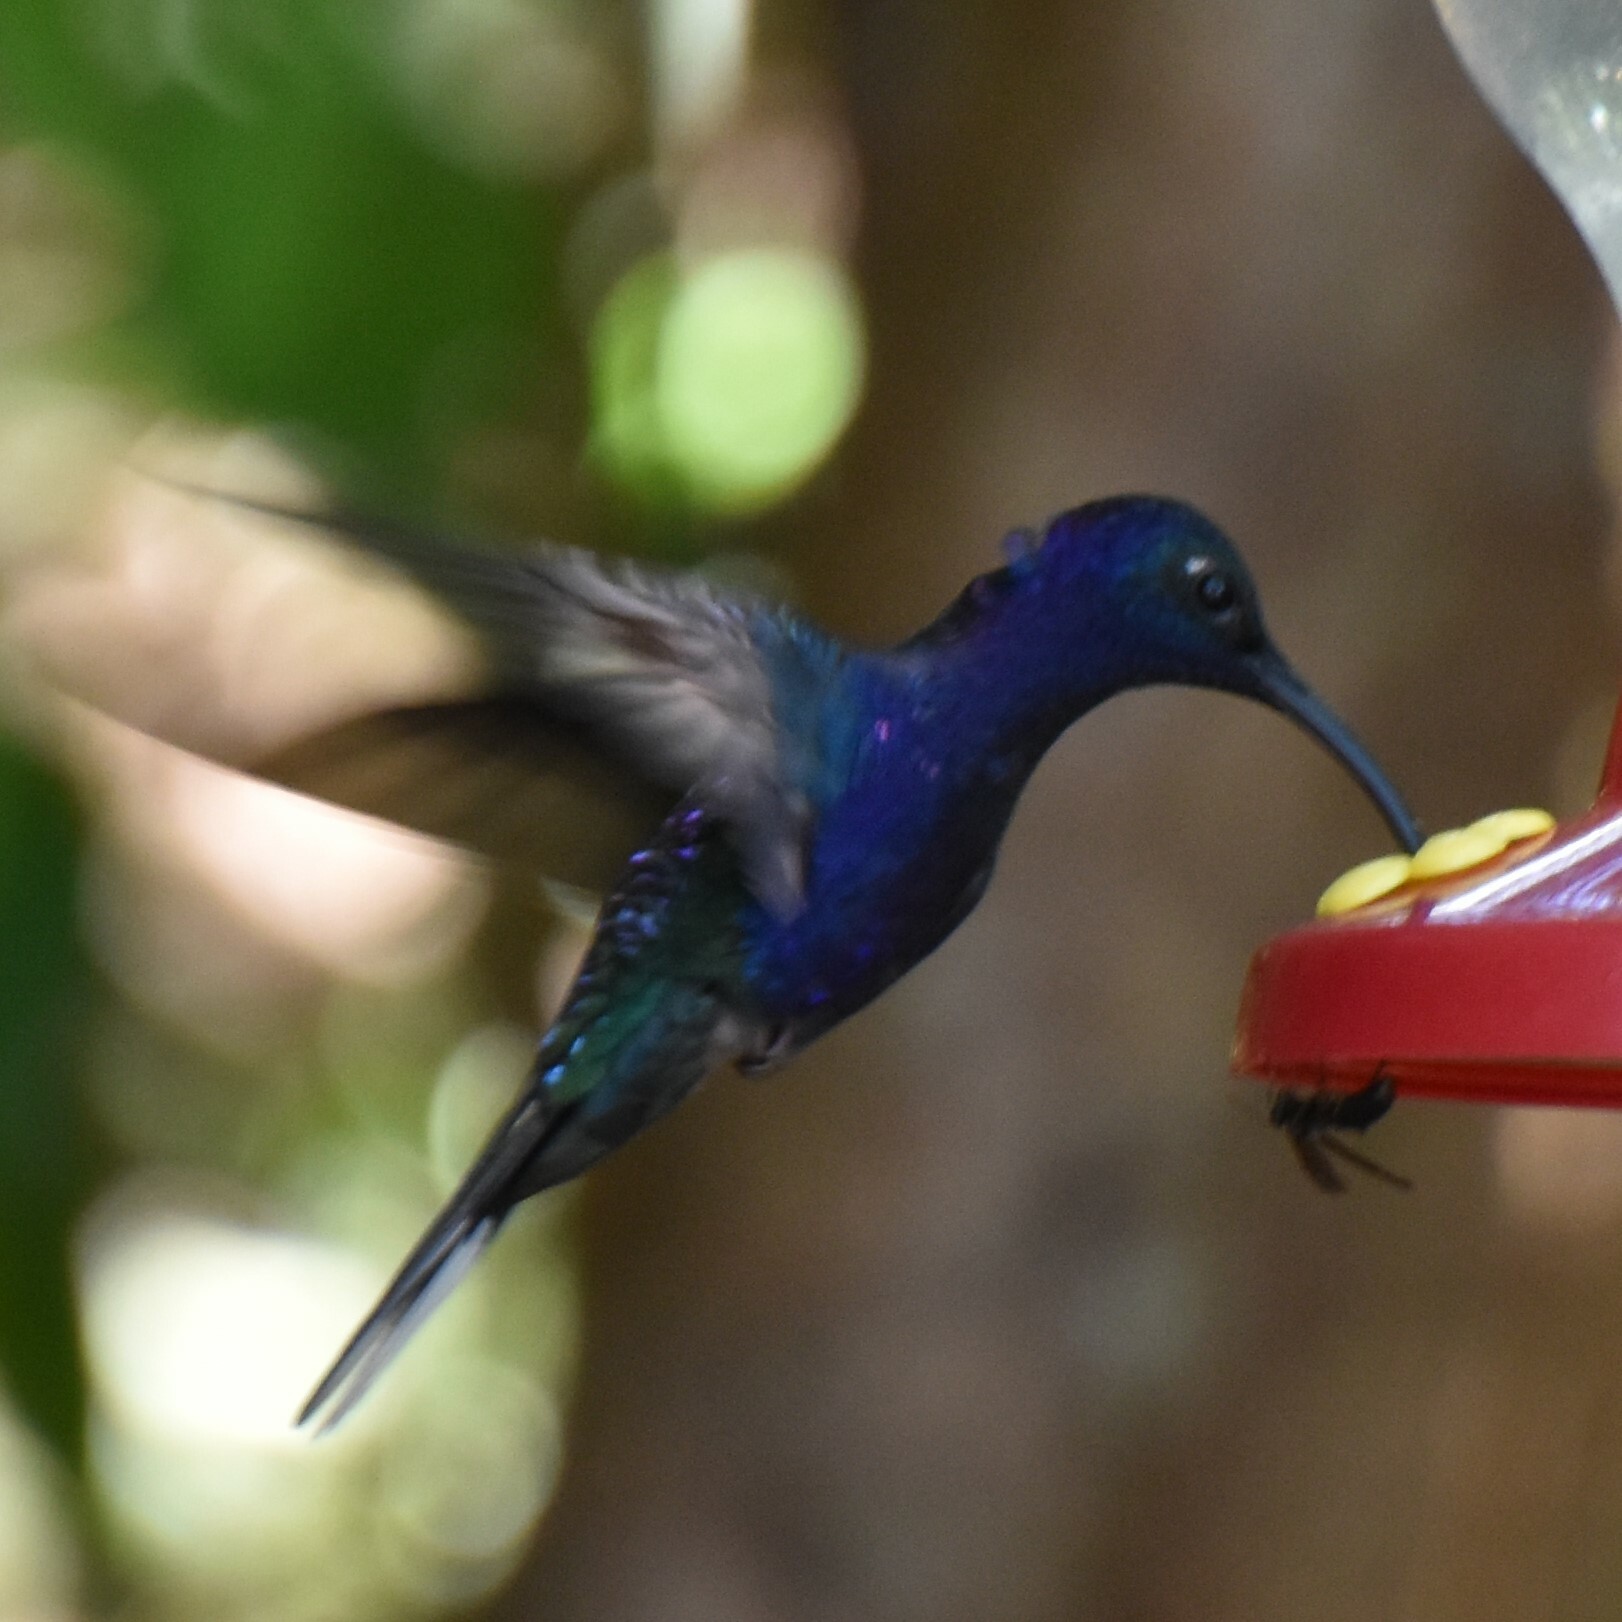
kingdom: Animalia
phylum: Chordata
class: Aves
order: Apodiformes
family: Trochilidae
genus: Campylopterus
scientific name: Campylopterus hemileucurus
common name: Violet sabrewing
